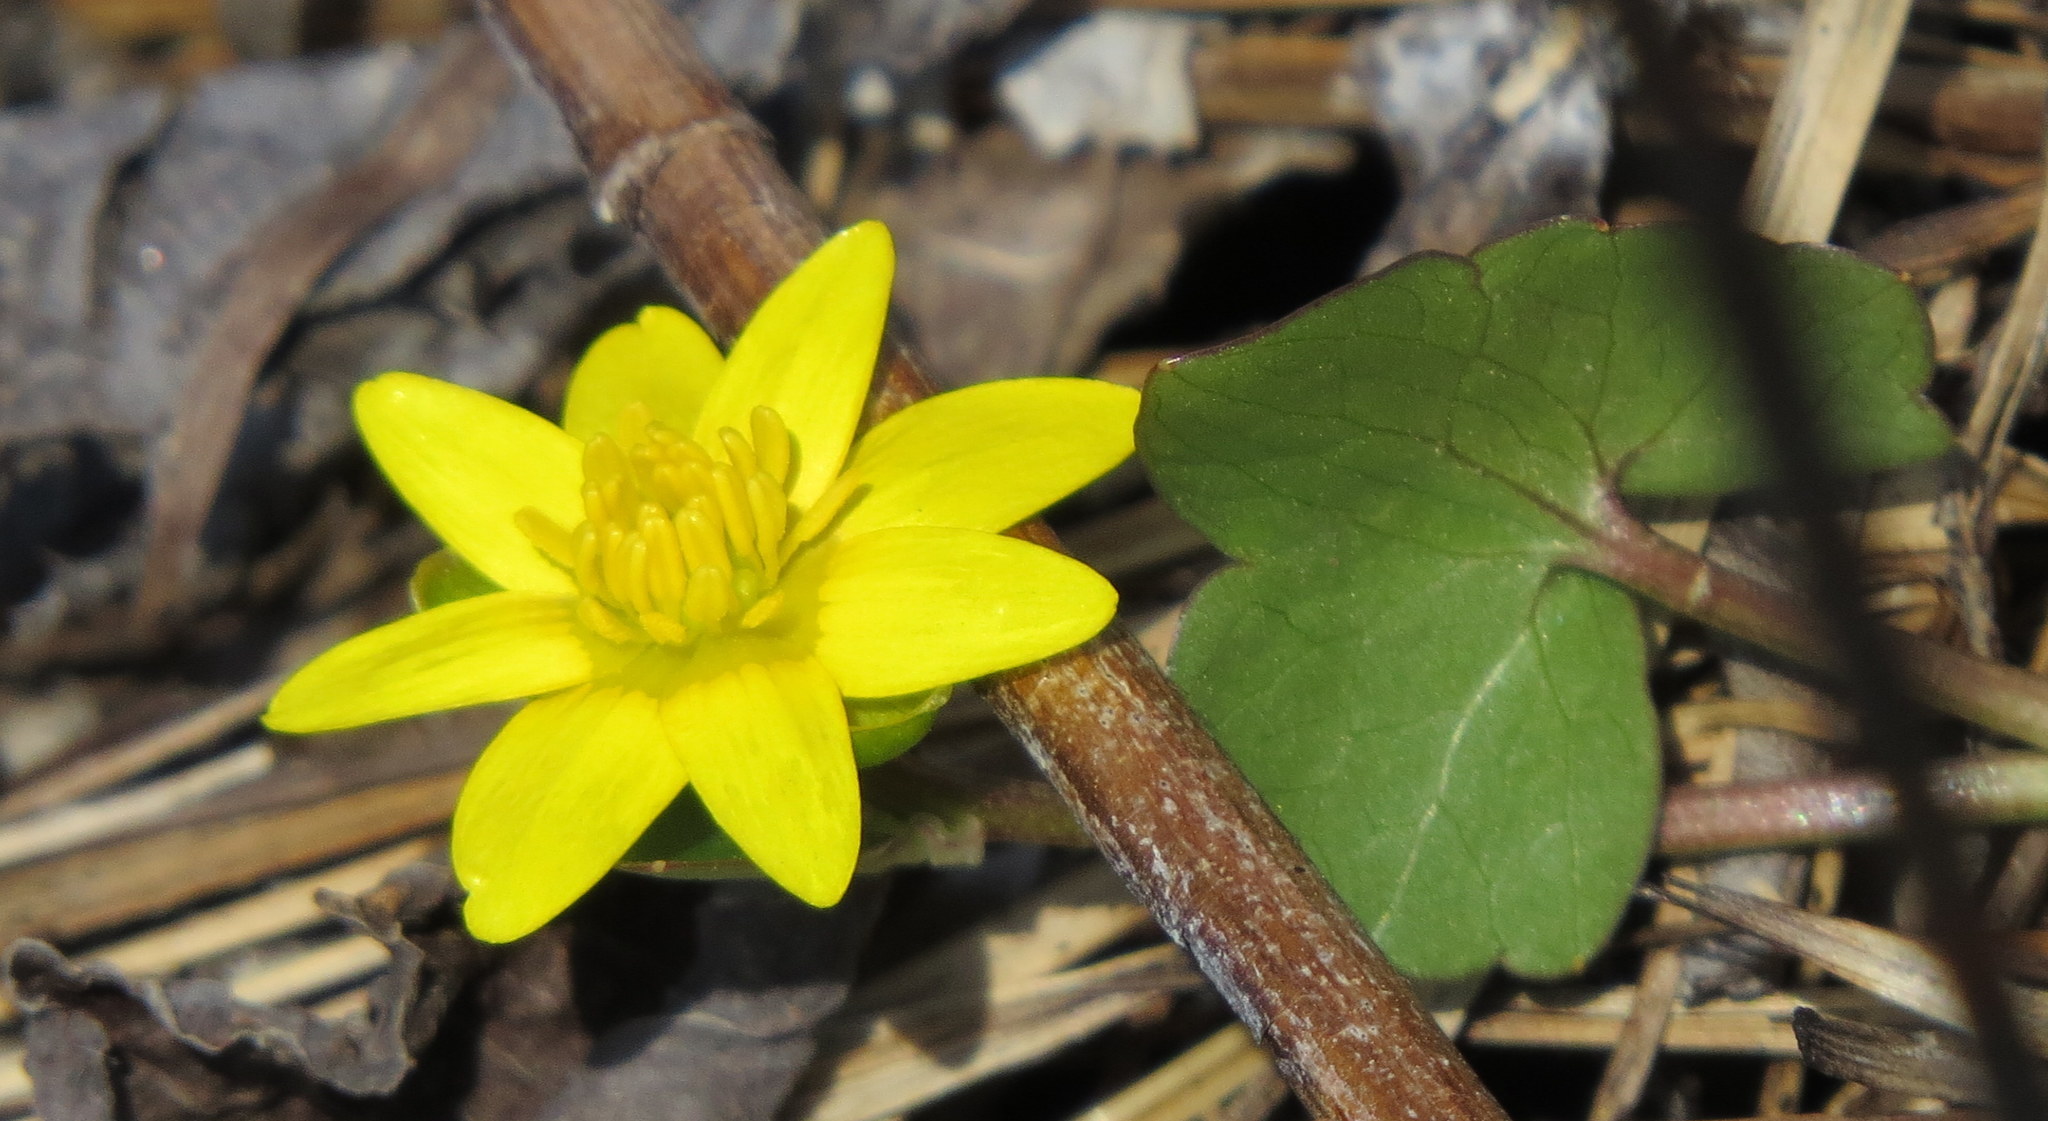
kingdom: Plantae
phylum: Tracheophyta
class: Magnoliopsida
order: Ranunculales
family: Ranunculaceae
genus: Ficaria
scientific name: Ficaria verna
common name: Lesser celandine
